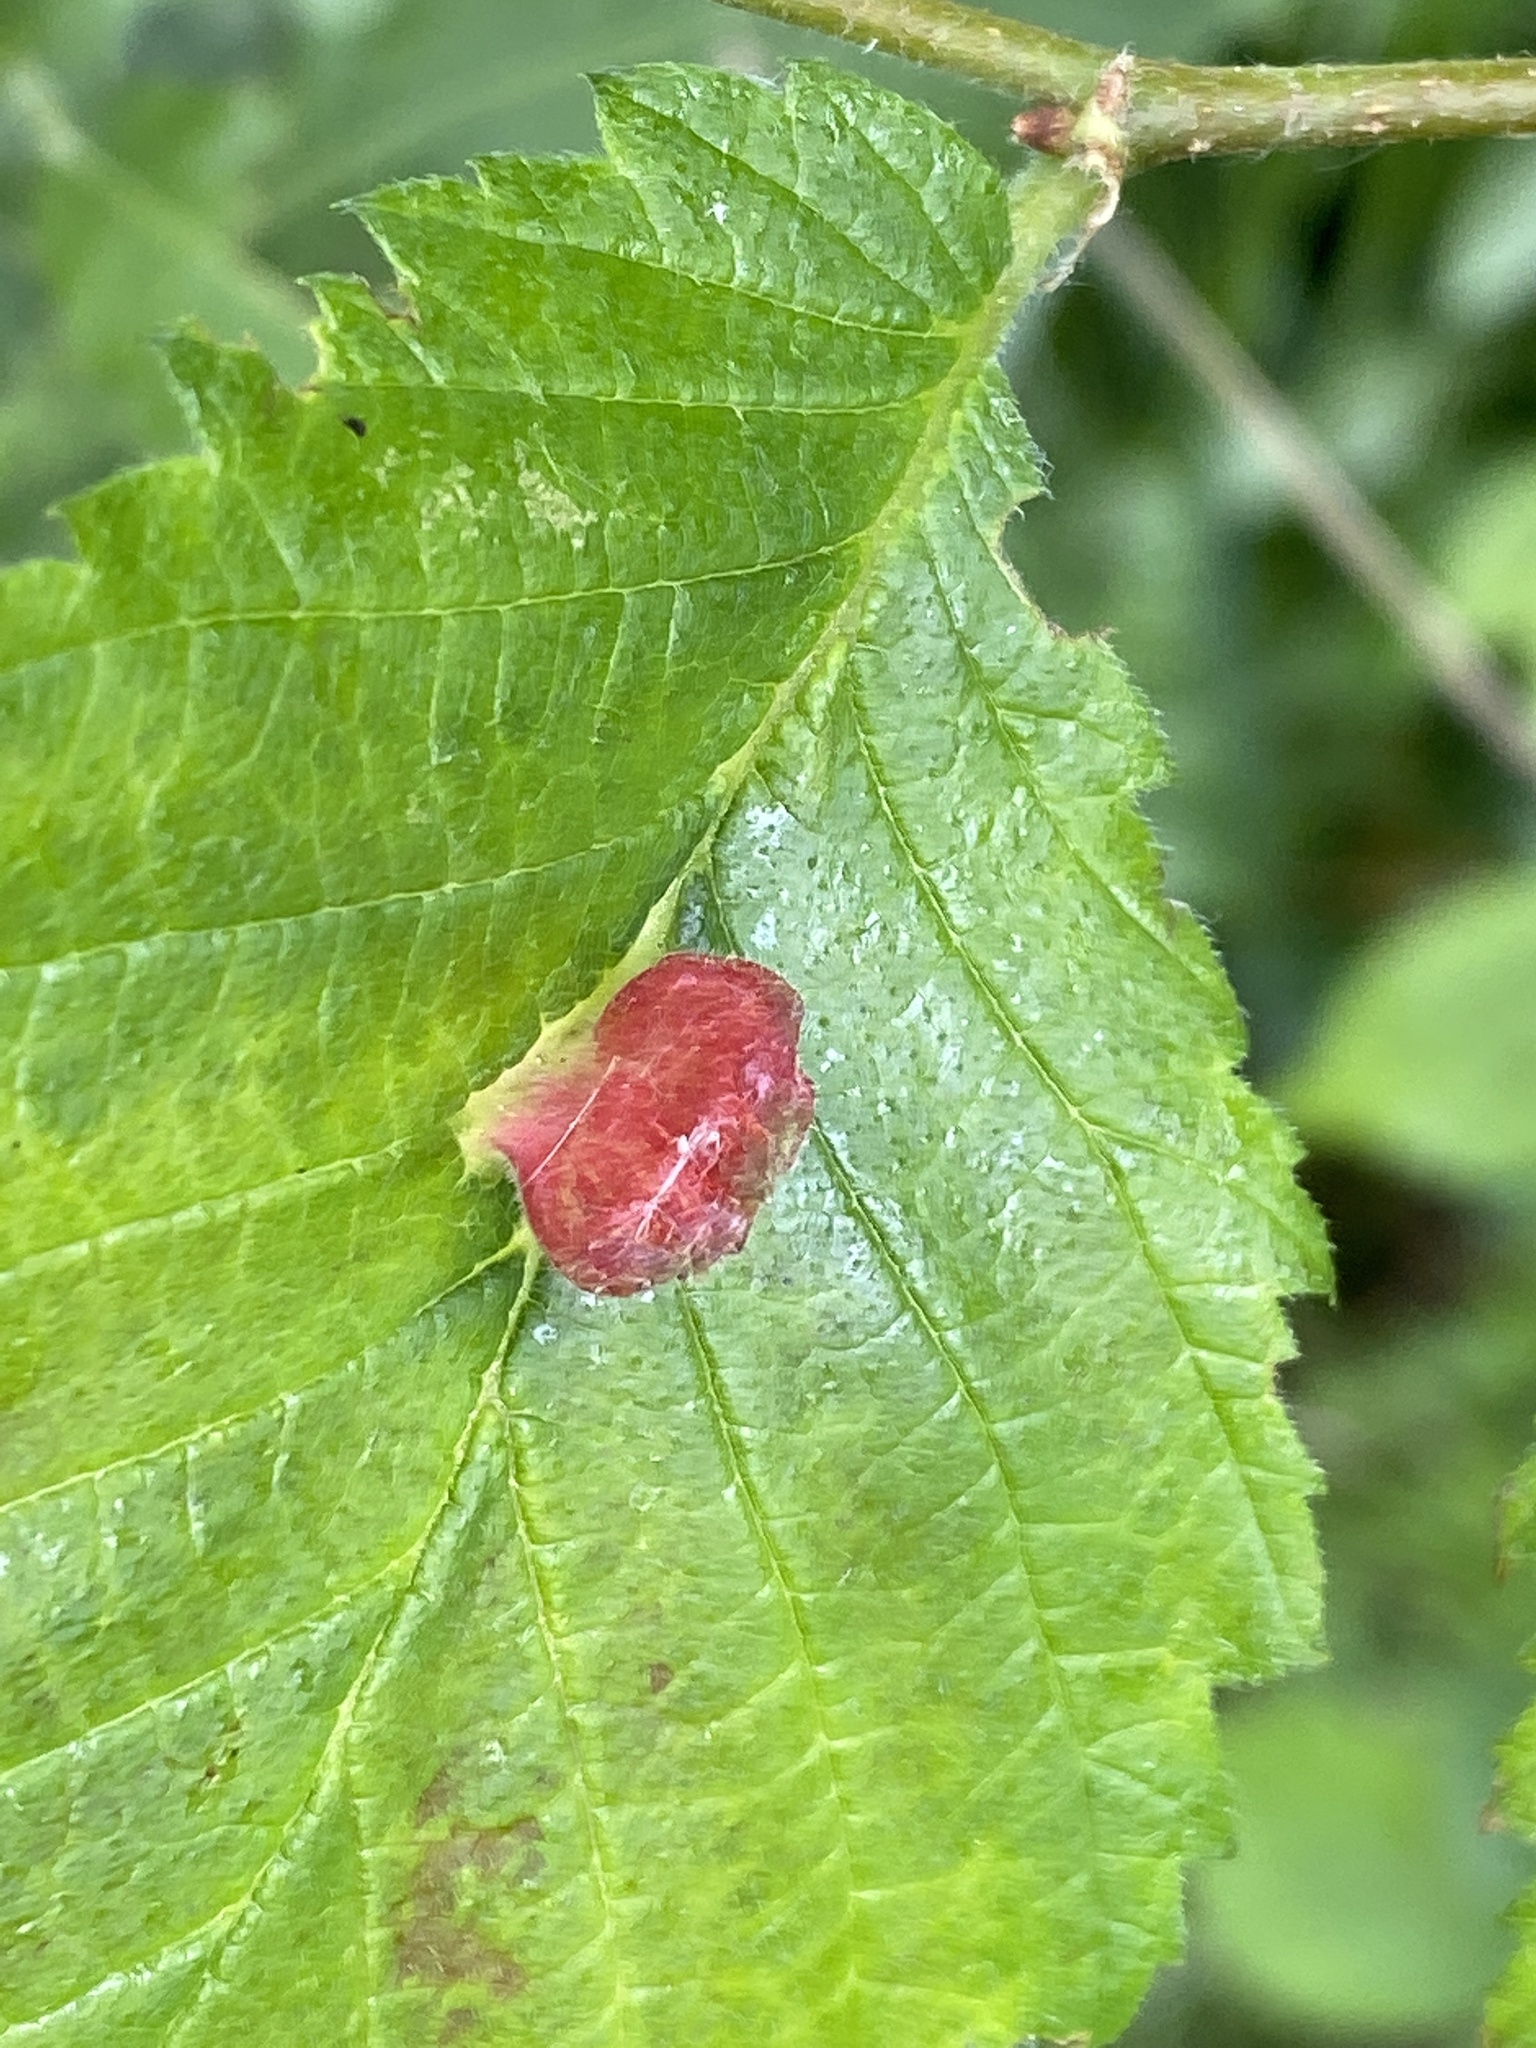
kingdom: Animalia
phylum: Arthropoda
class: Insecta
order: Hemiptera
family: Aphididae
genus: Colopha
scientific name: Colopha compressa
